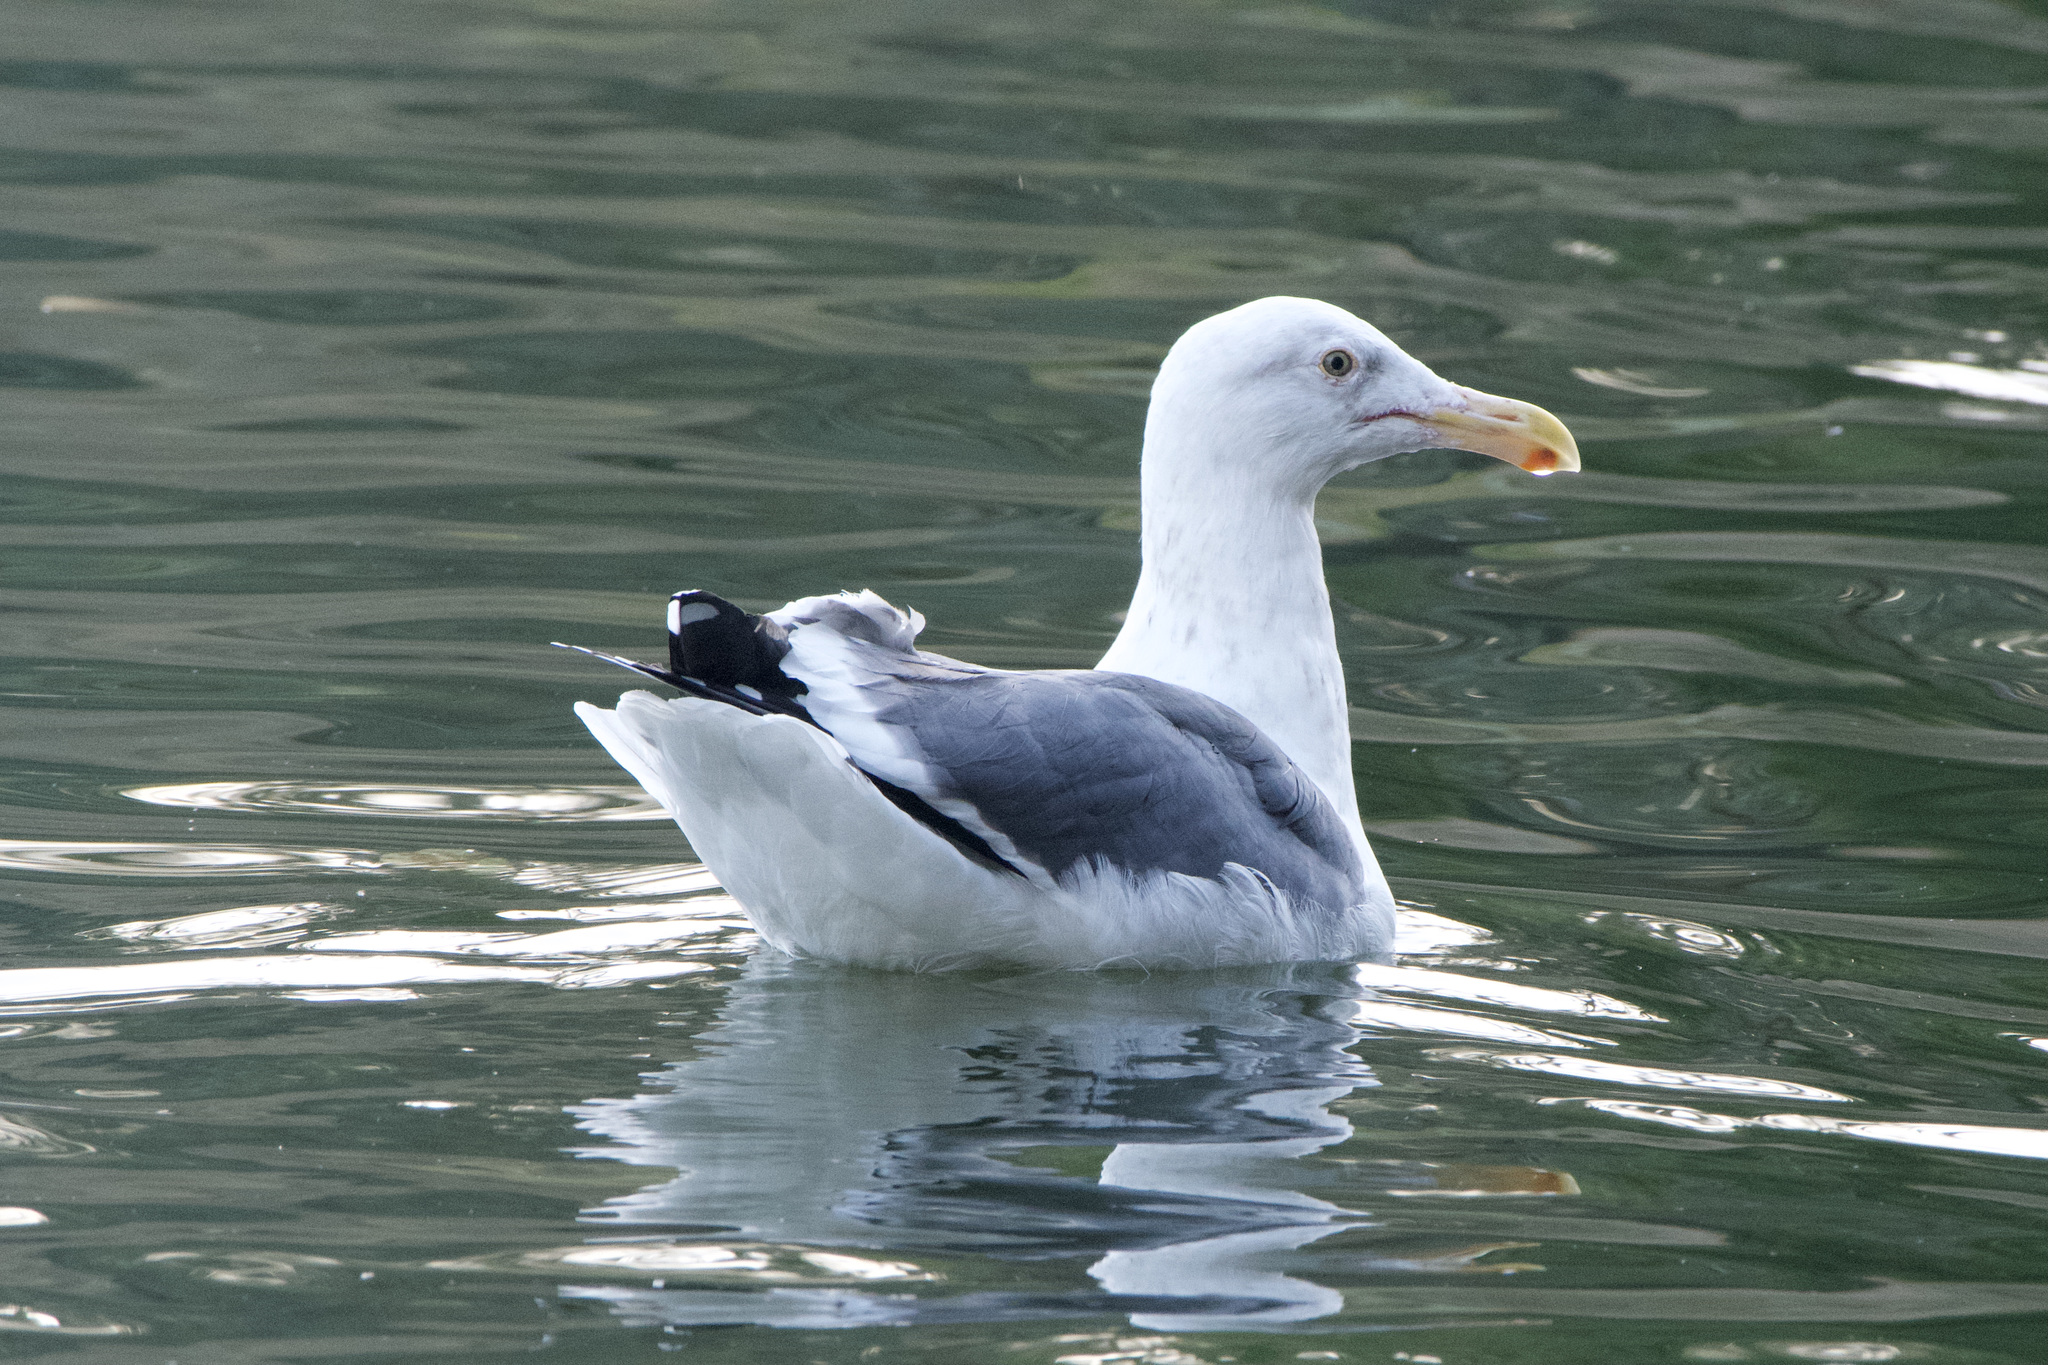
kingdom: Animalia
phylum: Chordata
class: Aves
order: Charadriiformes
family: Laridae
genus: Larus
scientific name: Larus occidentalis
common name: Western gull
